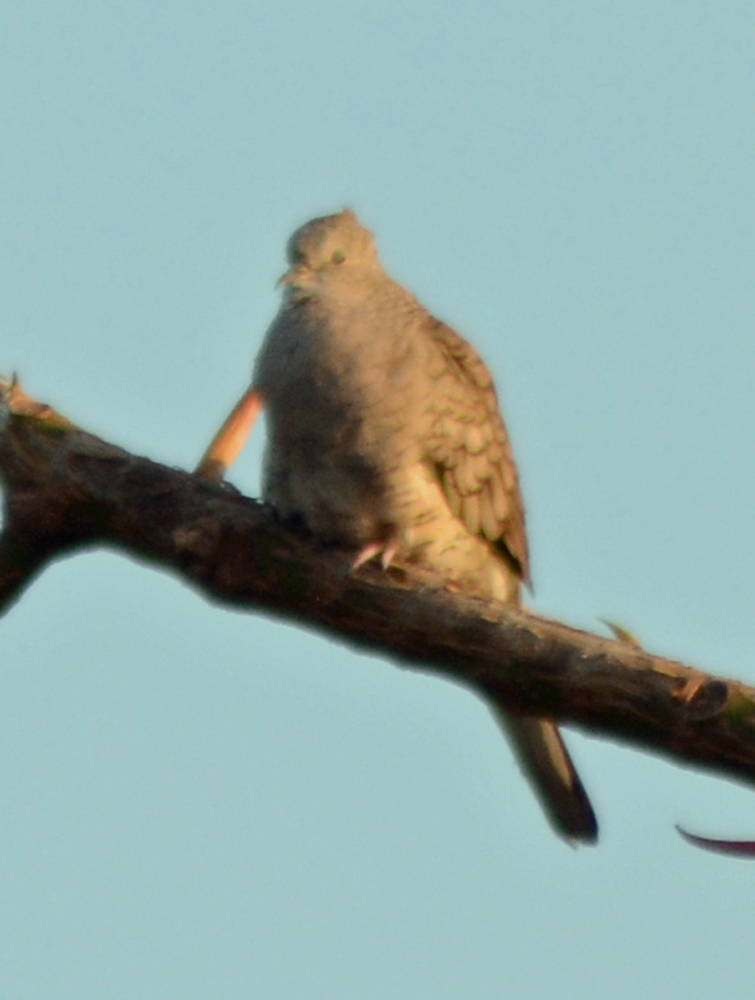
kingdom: Animalia
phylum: Chordata
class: Aves
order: Columbiformes
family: Columbidae
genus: Columbina
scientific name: Columbina inca
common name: Inca dove
